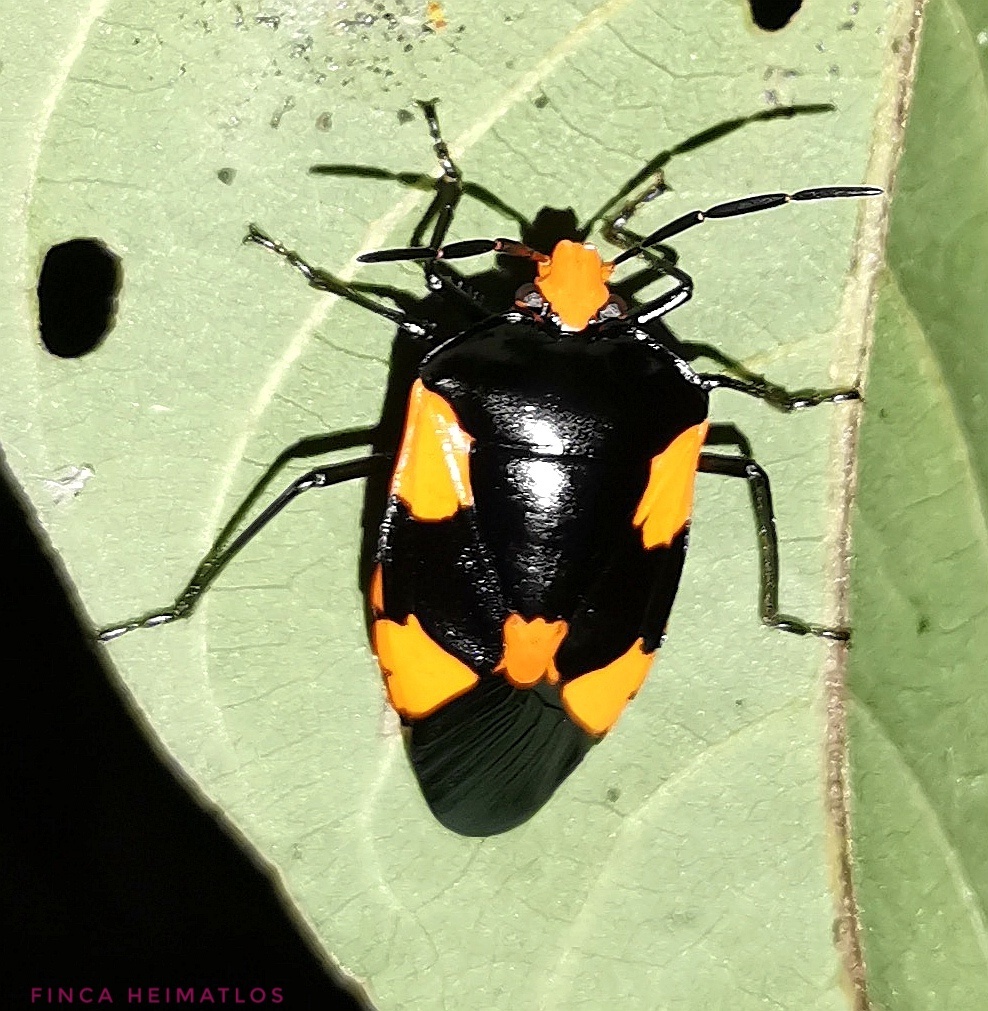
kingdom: Animalia
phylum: Arthropoda
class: Insecta
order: Hemiptera
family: Pentatomidae
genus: Arocera
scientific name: Arocera elongata
